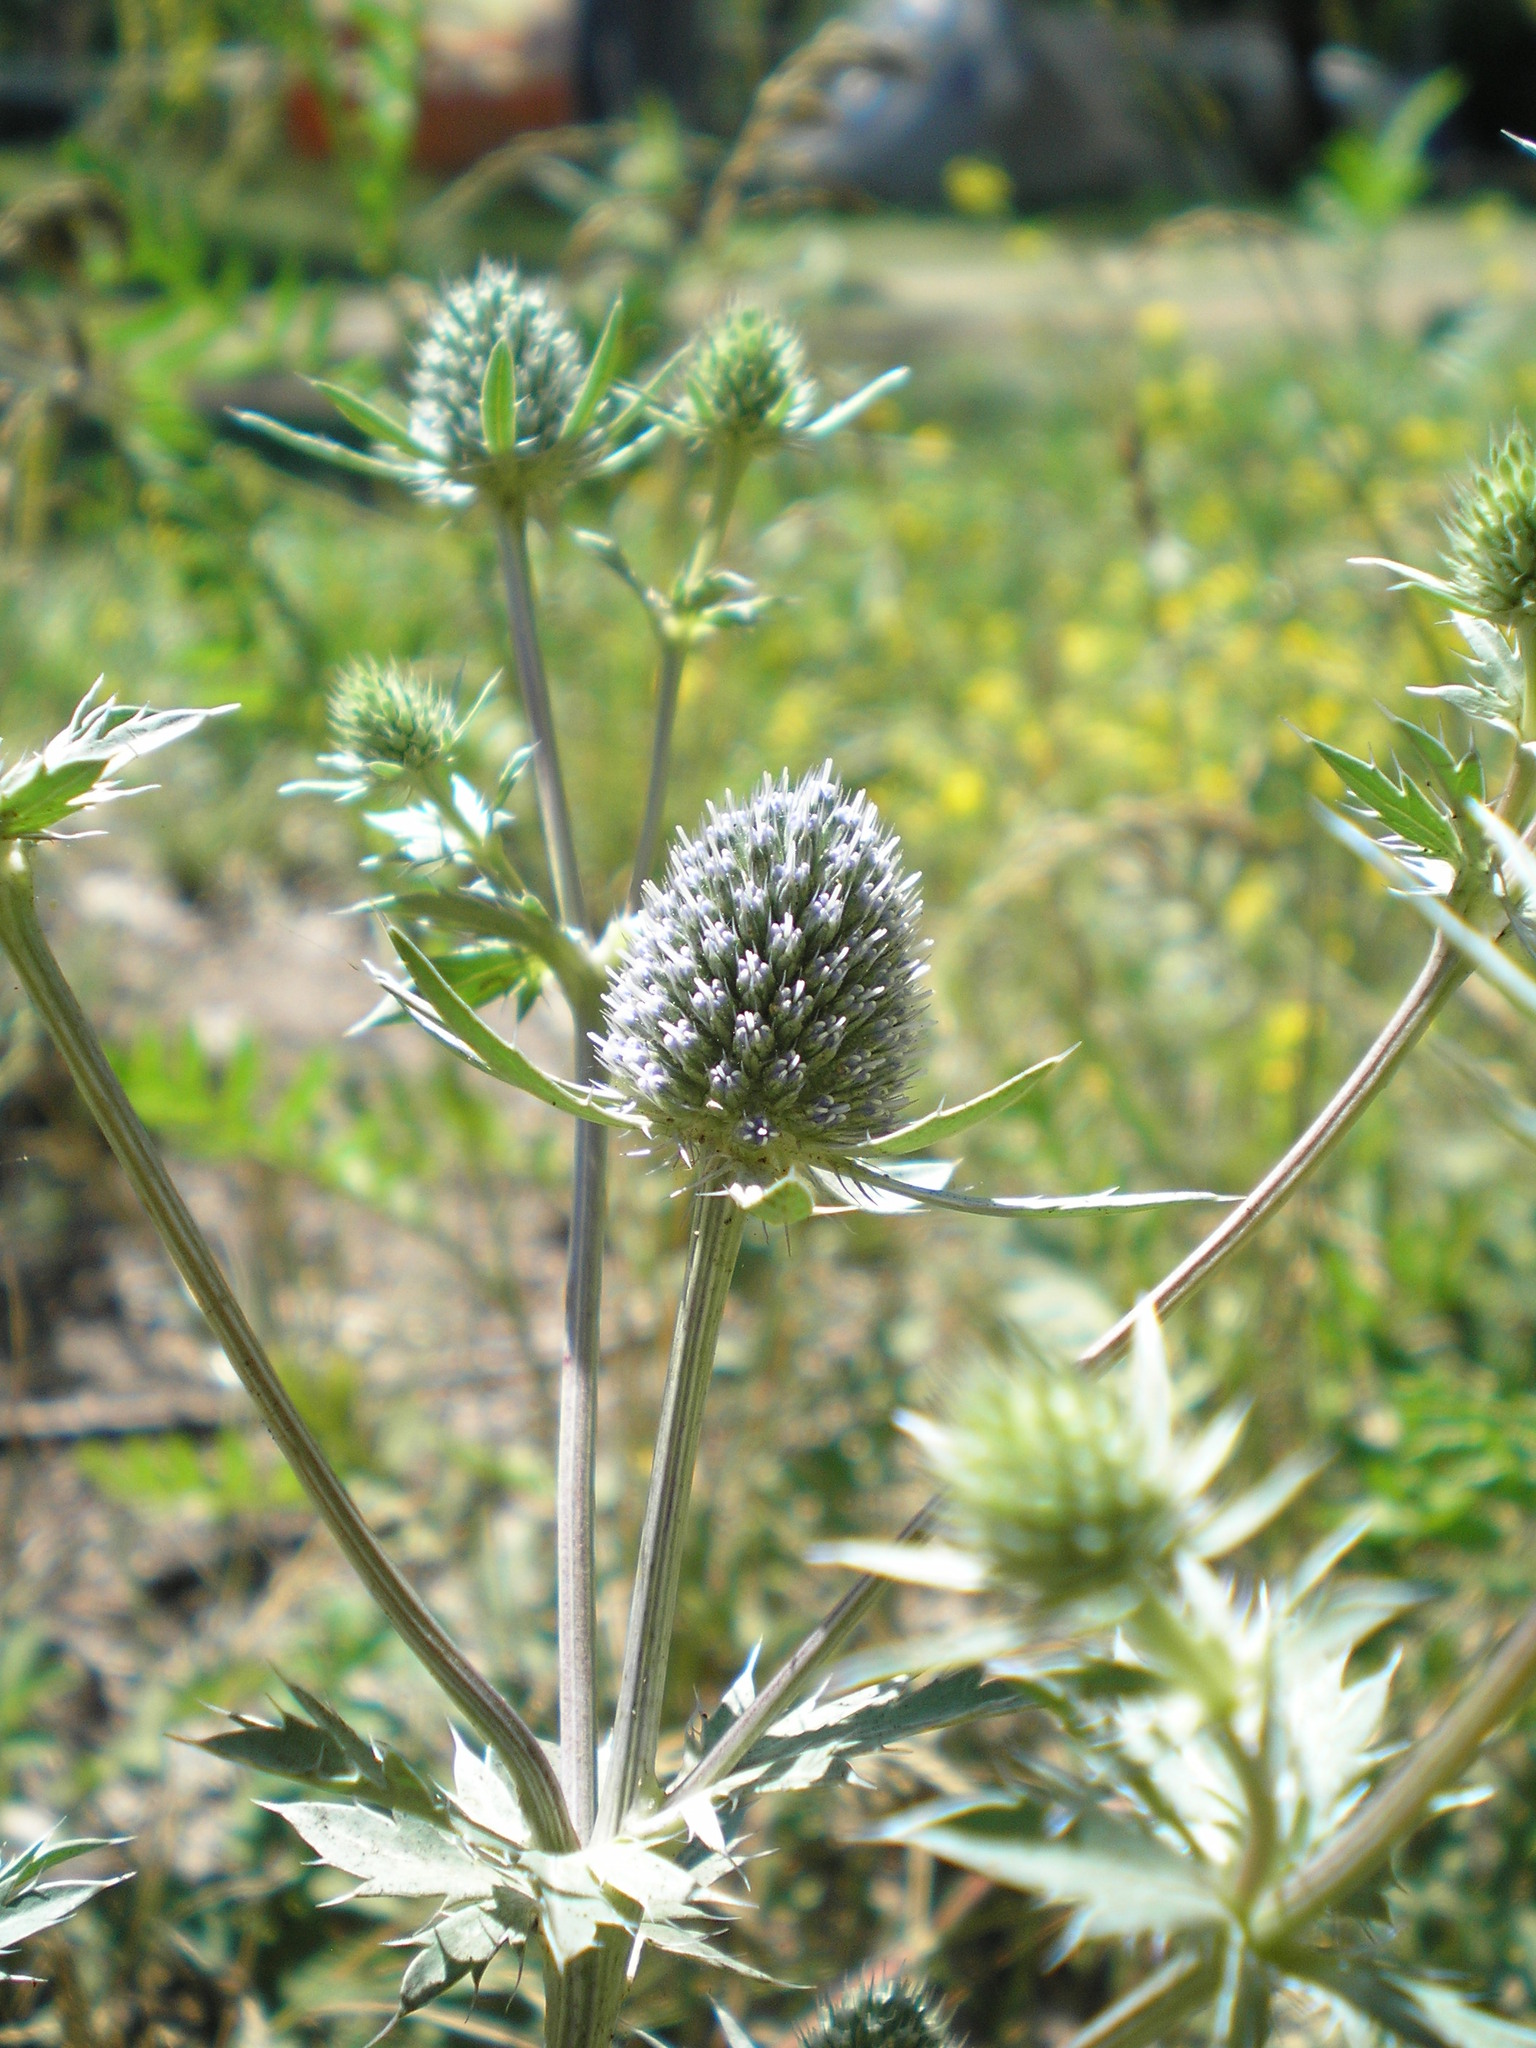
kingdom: Plantae
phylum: Tracheophyta
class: Magnoliopsida
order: Apiales
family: Apiaceae
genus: Eryngium
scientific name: Eryngium planum
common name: Blue eryngo
